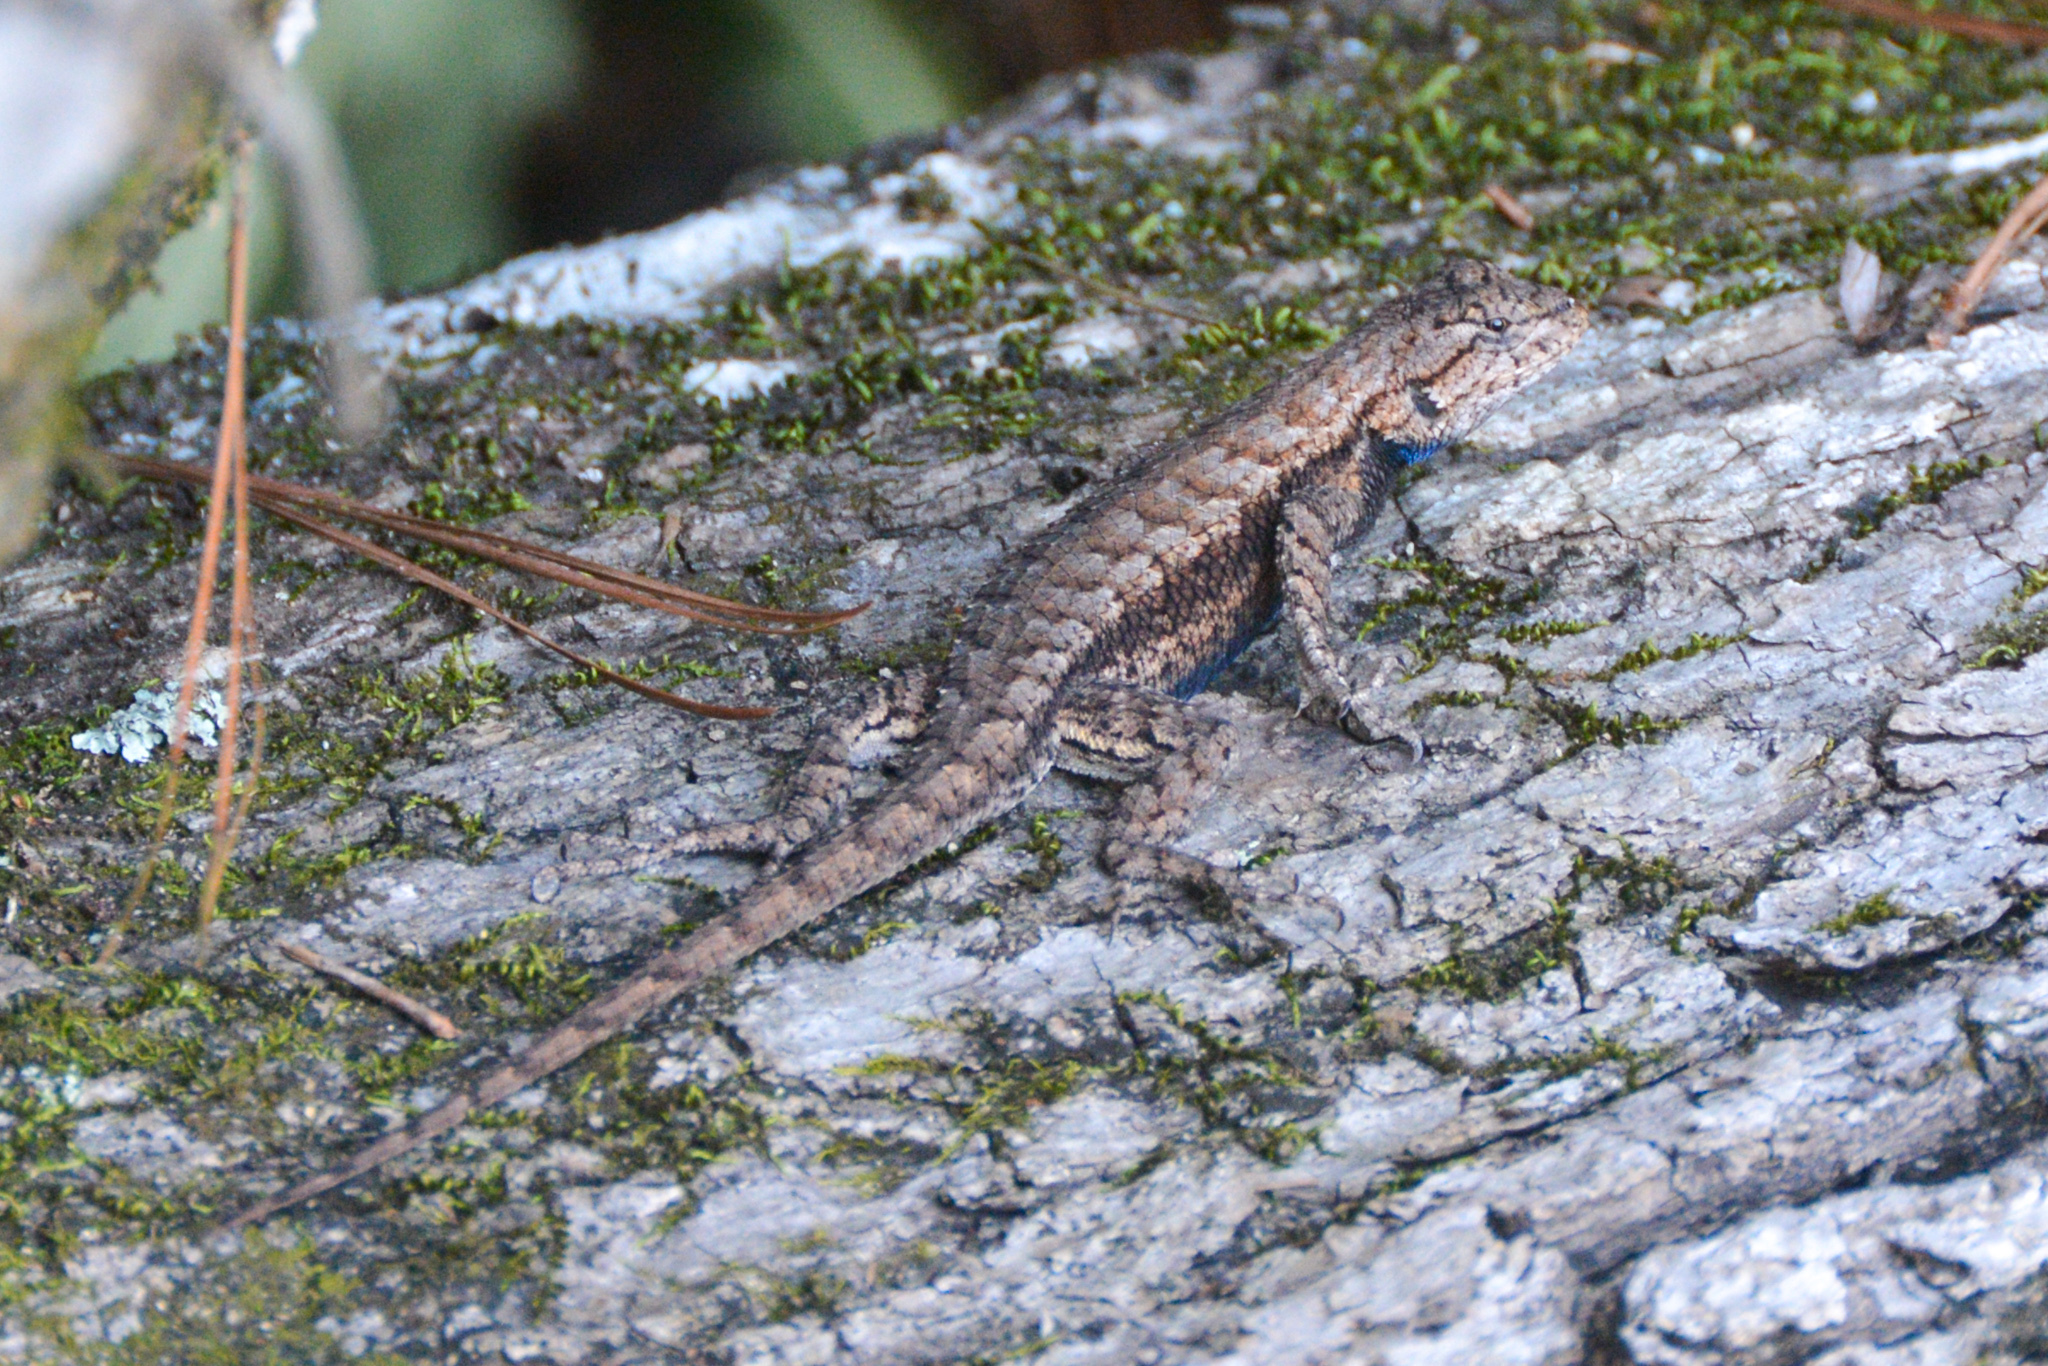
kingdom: Animalia
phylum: Chordata
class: Squamata
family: Phrynosomatidae
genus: Sceloporus
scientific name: Sceloporus consobrinus
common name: Southern prairie lizard
